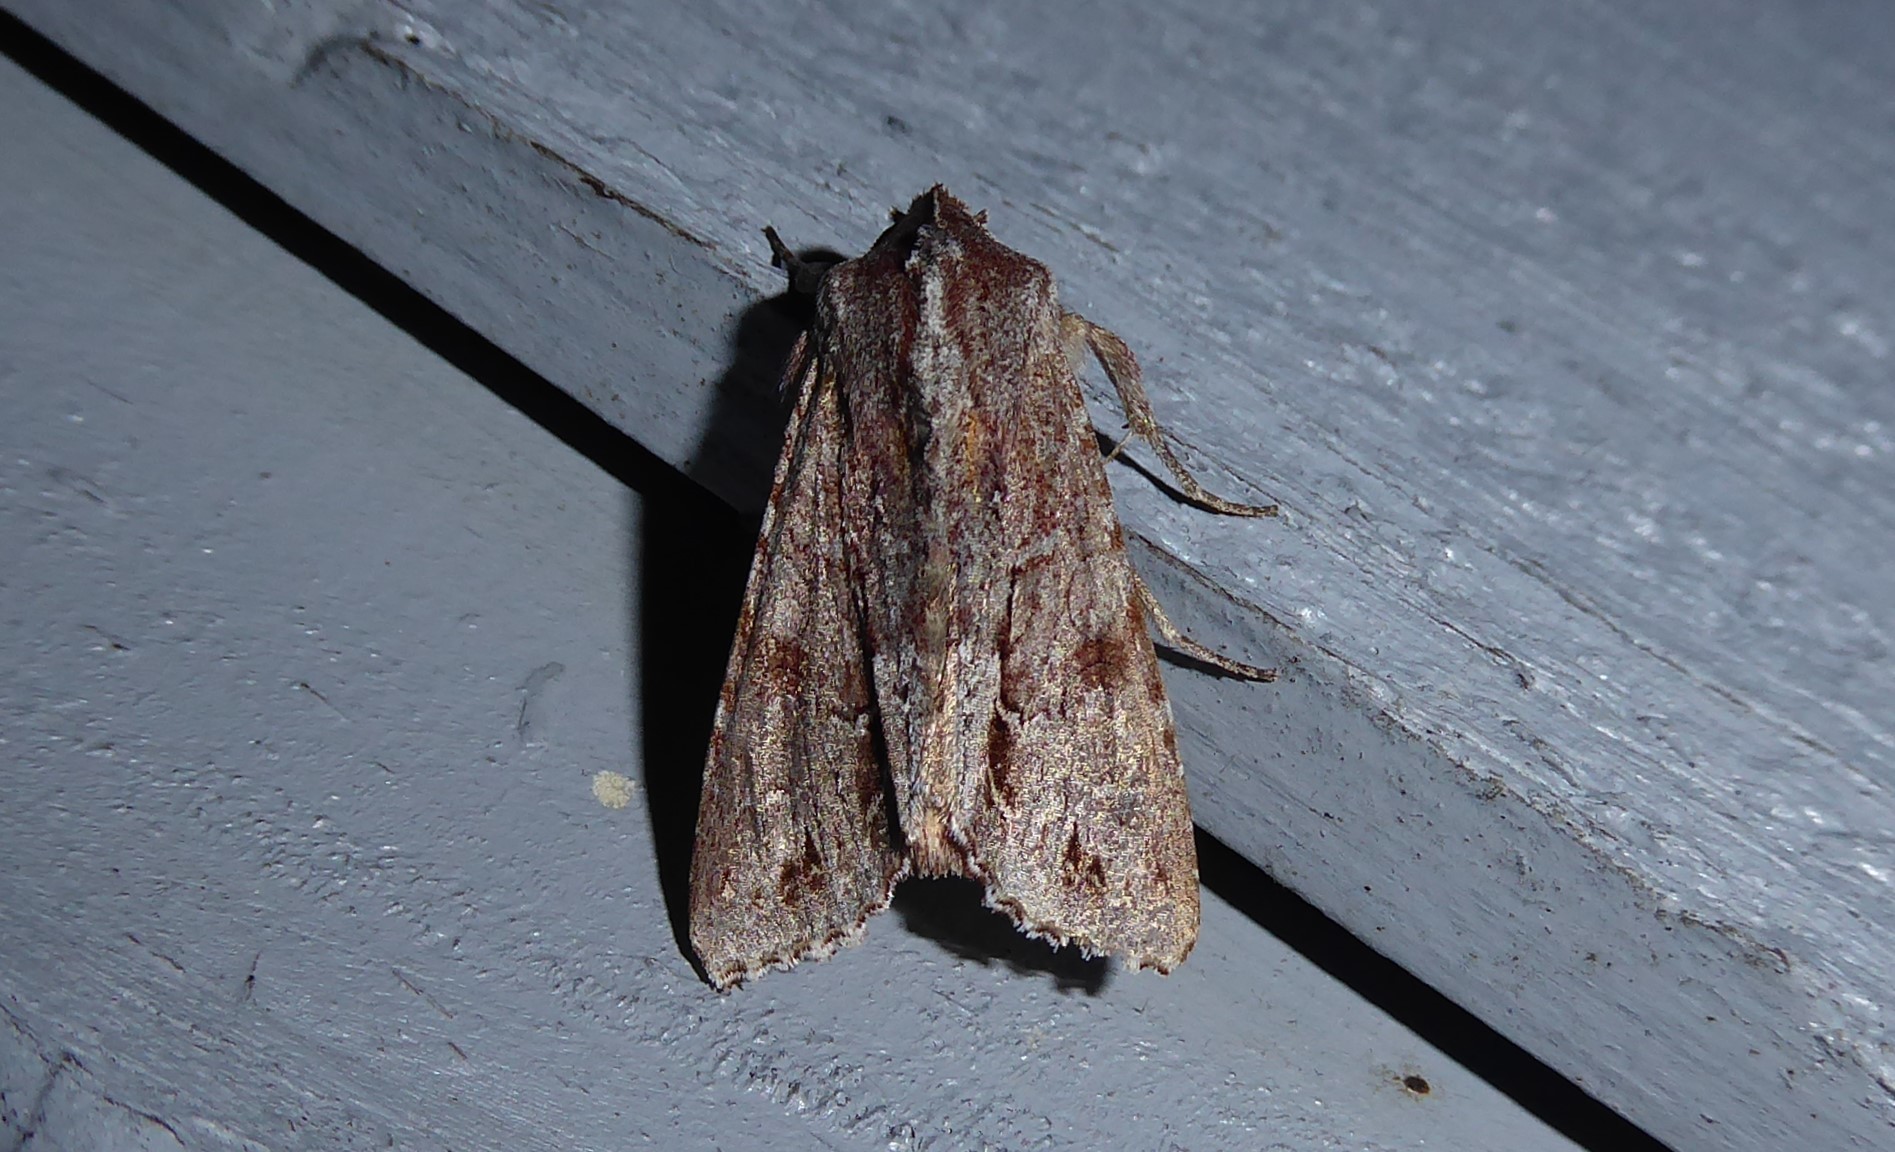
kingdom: Animalia
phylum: Arthropoda
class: Insecta
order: Lepidoptera
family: Noctuidae
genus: Ichneutica
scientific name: Ichneutica
